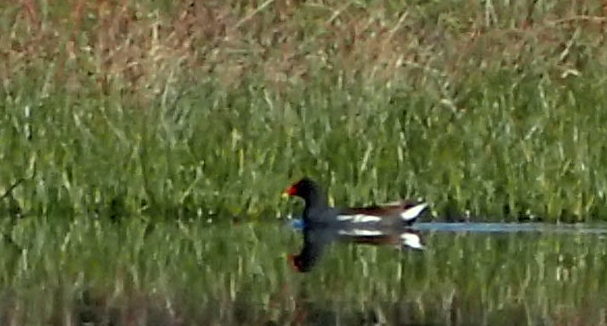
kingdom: Animalia
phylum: Chordata
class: Aves
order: Gruiformes
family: Rallidae
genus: Gallinula
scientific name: Gallinula chloropus
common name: Common moorhen
